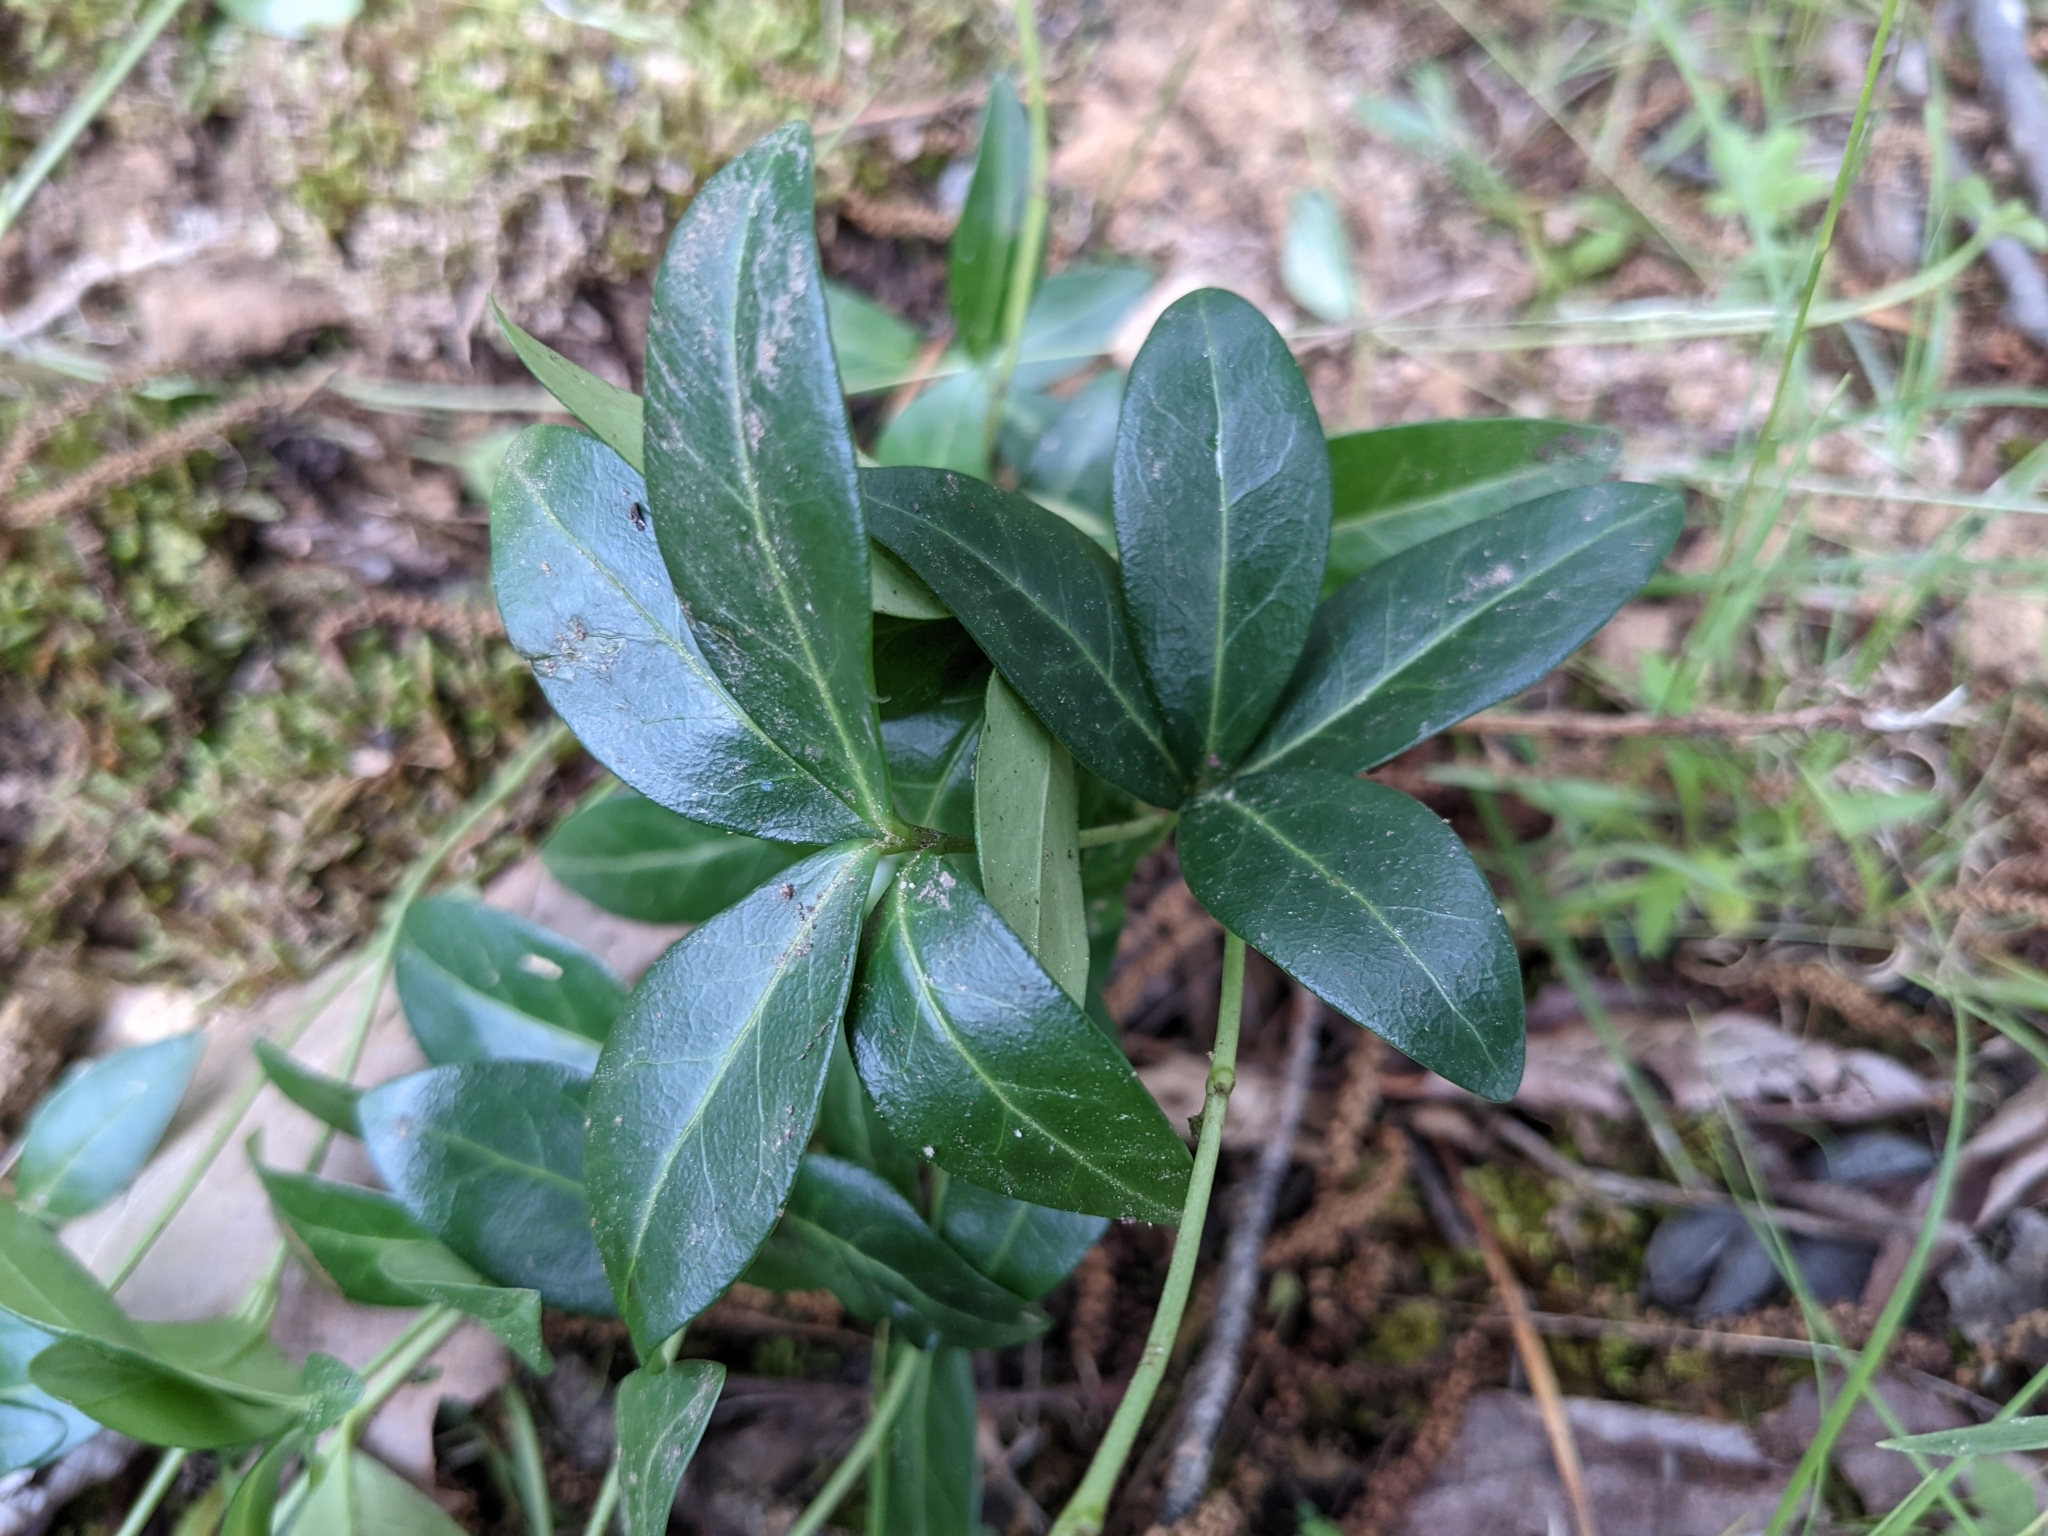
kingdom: Plantae
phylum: Tracheophyta
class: Magnoliopsida
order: Gentianales
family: Apocynaceae
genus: Vinca
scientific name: Vinca minor
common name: Lesser periwinkle
